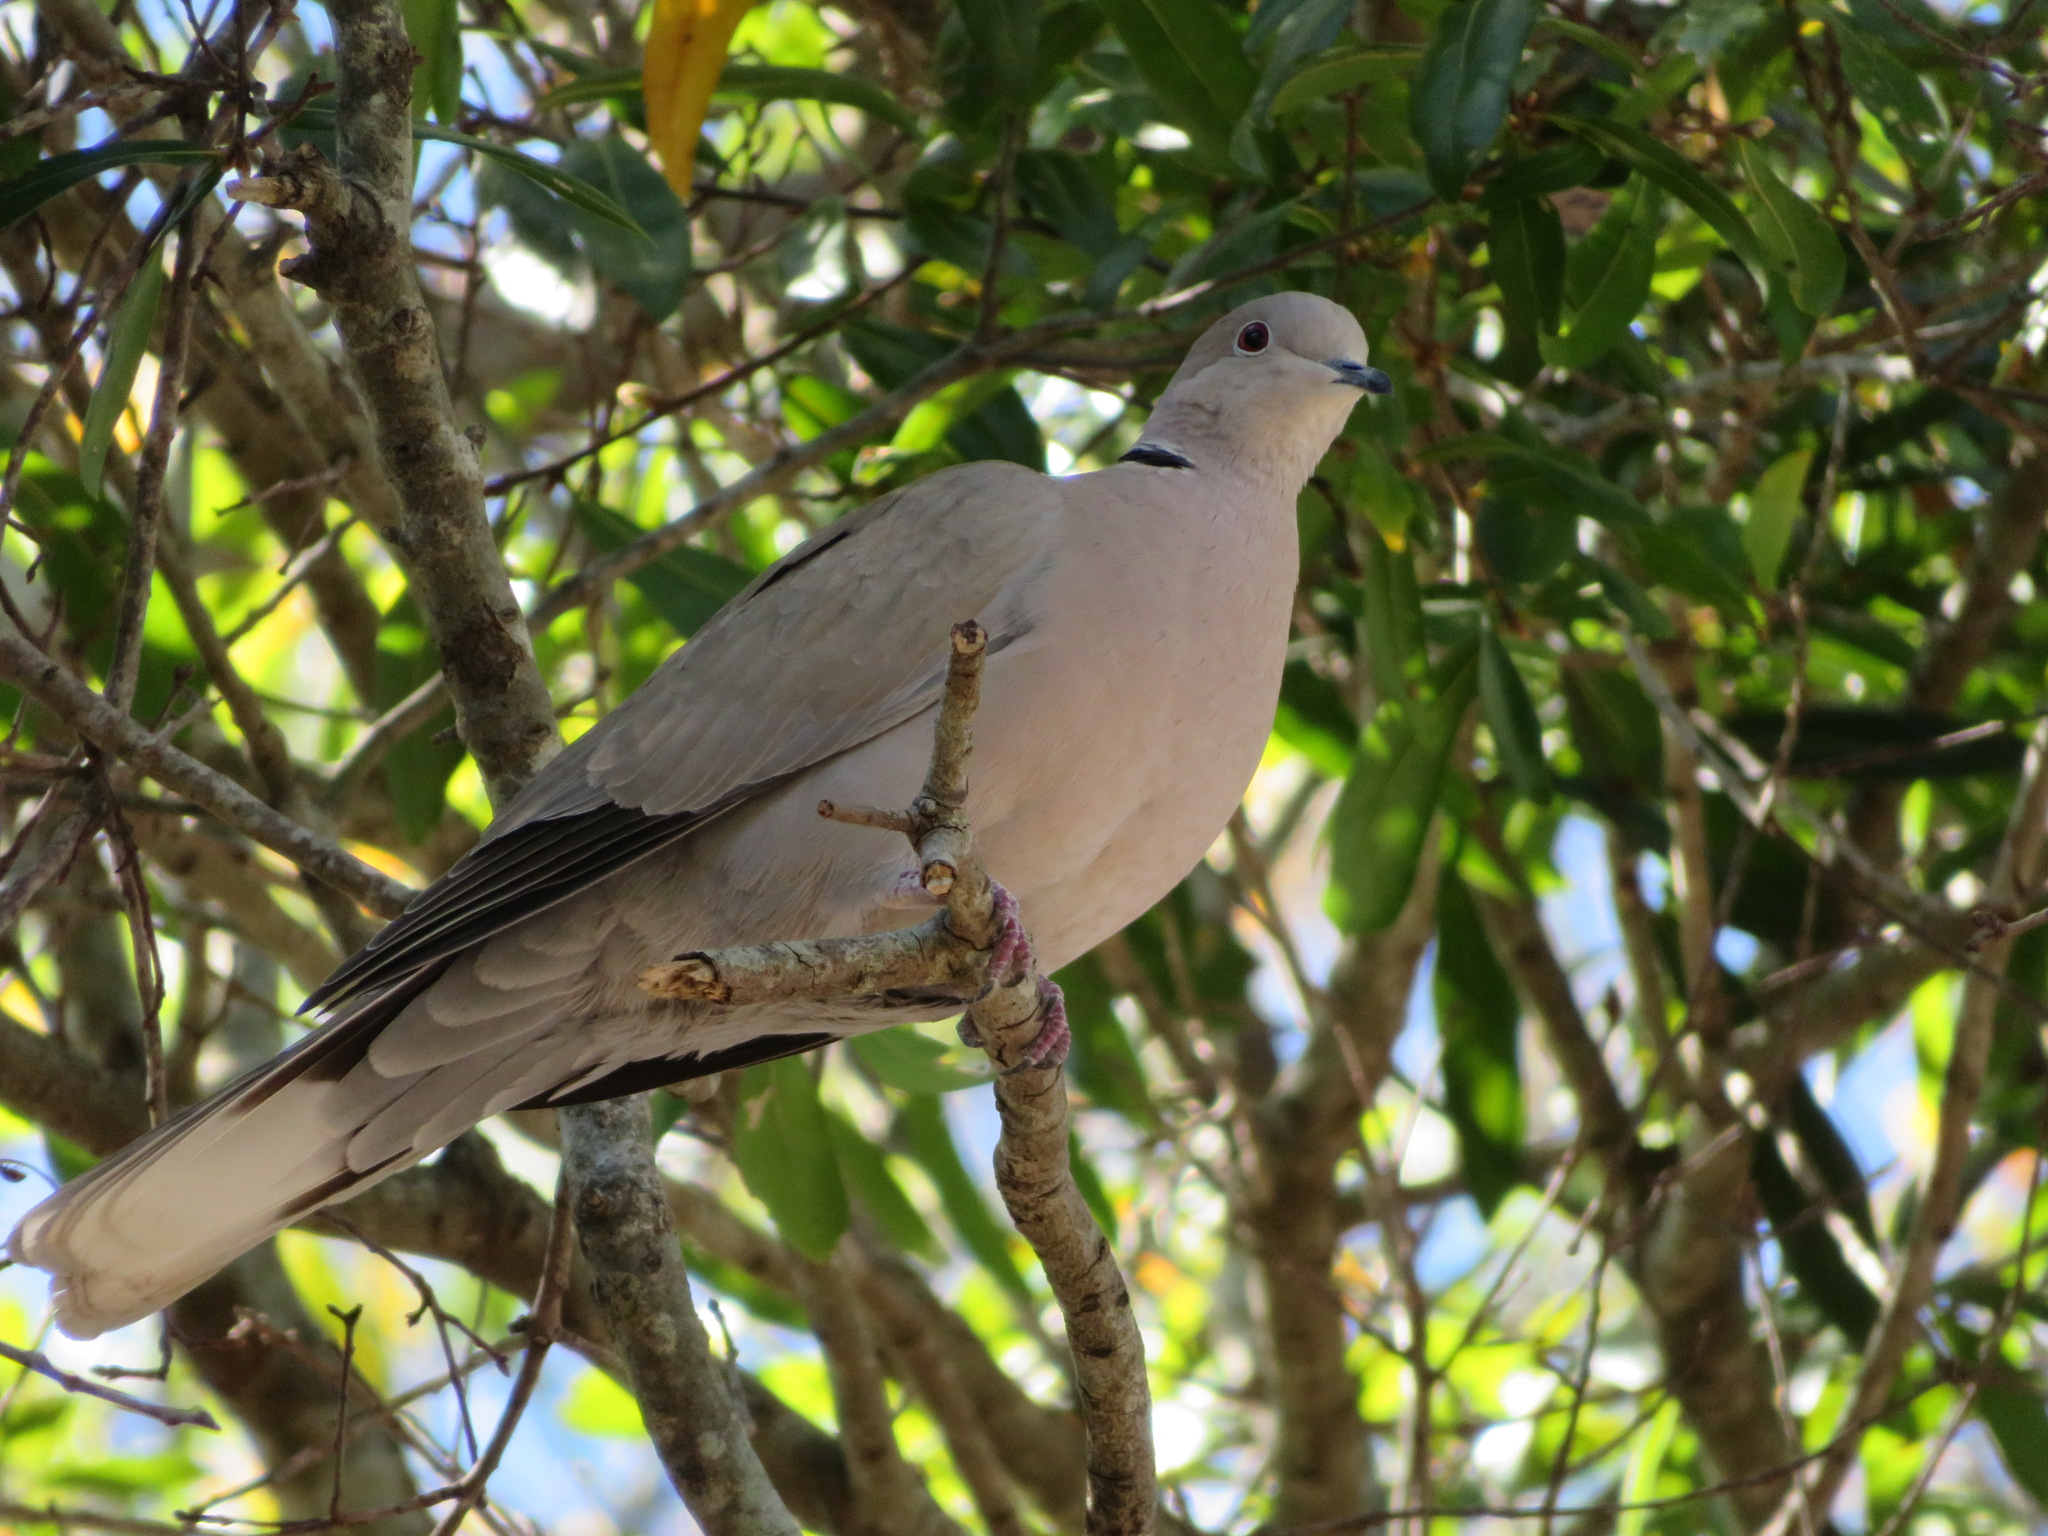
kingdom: Animalia
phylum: Chordata
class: Aves
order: Columbiformes
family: Columbidae
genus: Streptopelia
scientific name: Streptopelia decaocto
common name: Eurasian collared dove
